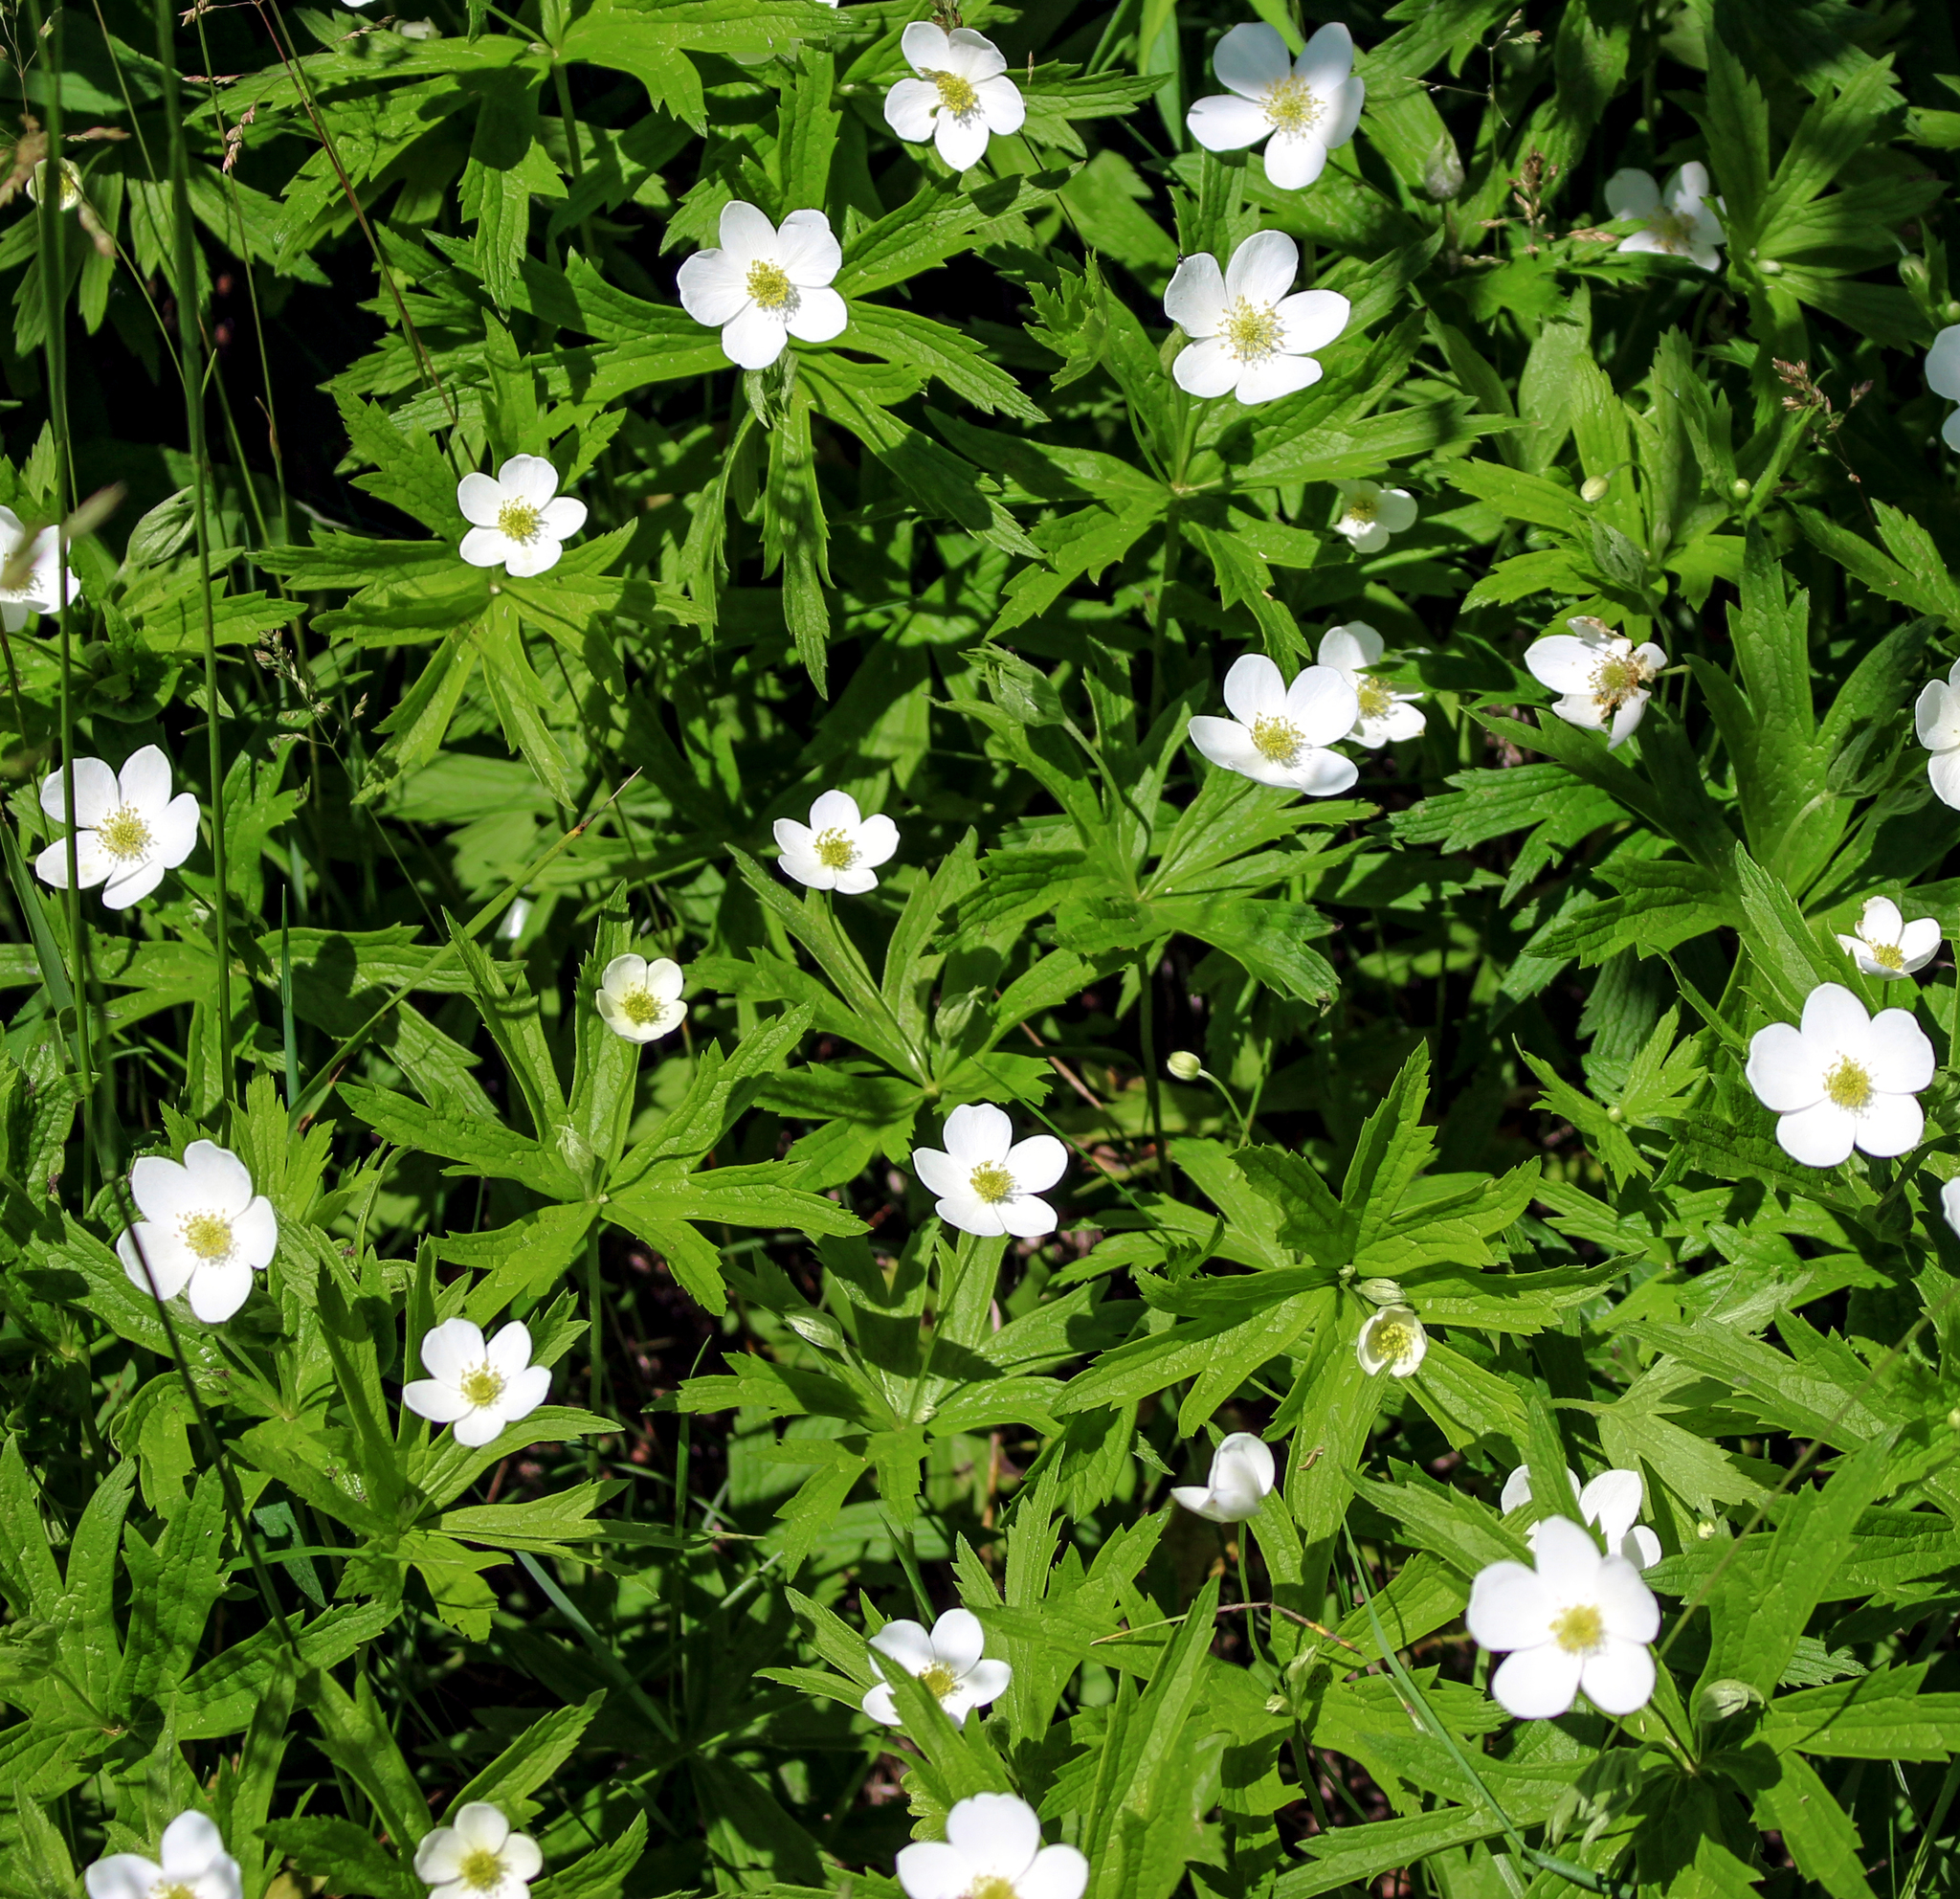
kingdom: Plantae
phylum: Tracheophyta
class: Magnoliopsida
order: Ranunculales
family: Ranunculaceae
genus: Anemonastrum
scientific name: Anemonastrum canadense
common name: Canada anemone
